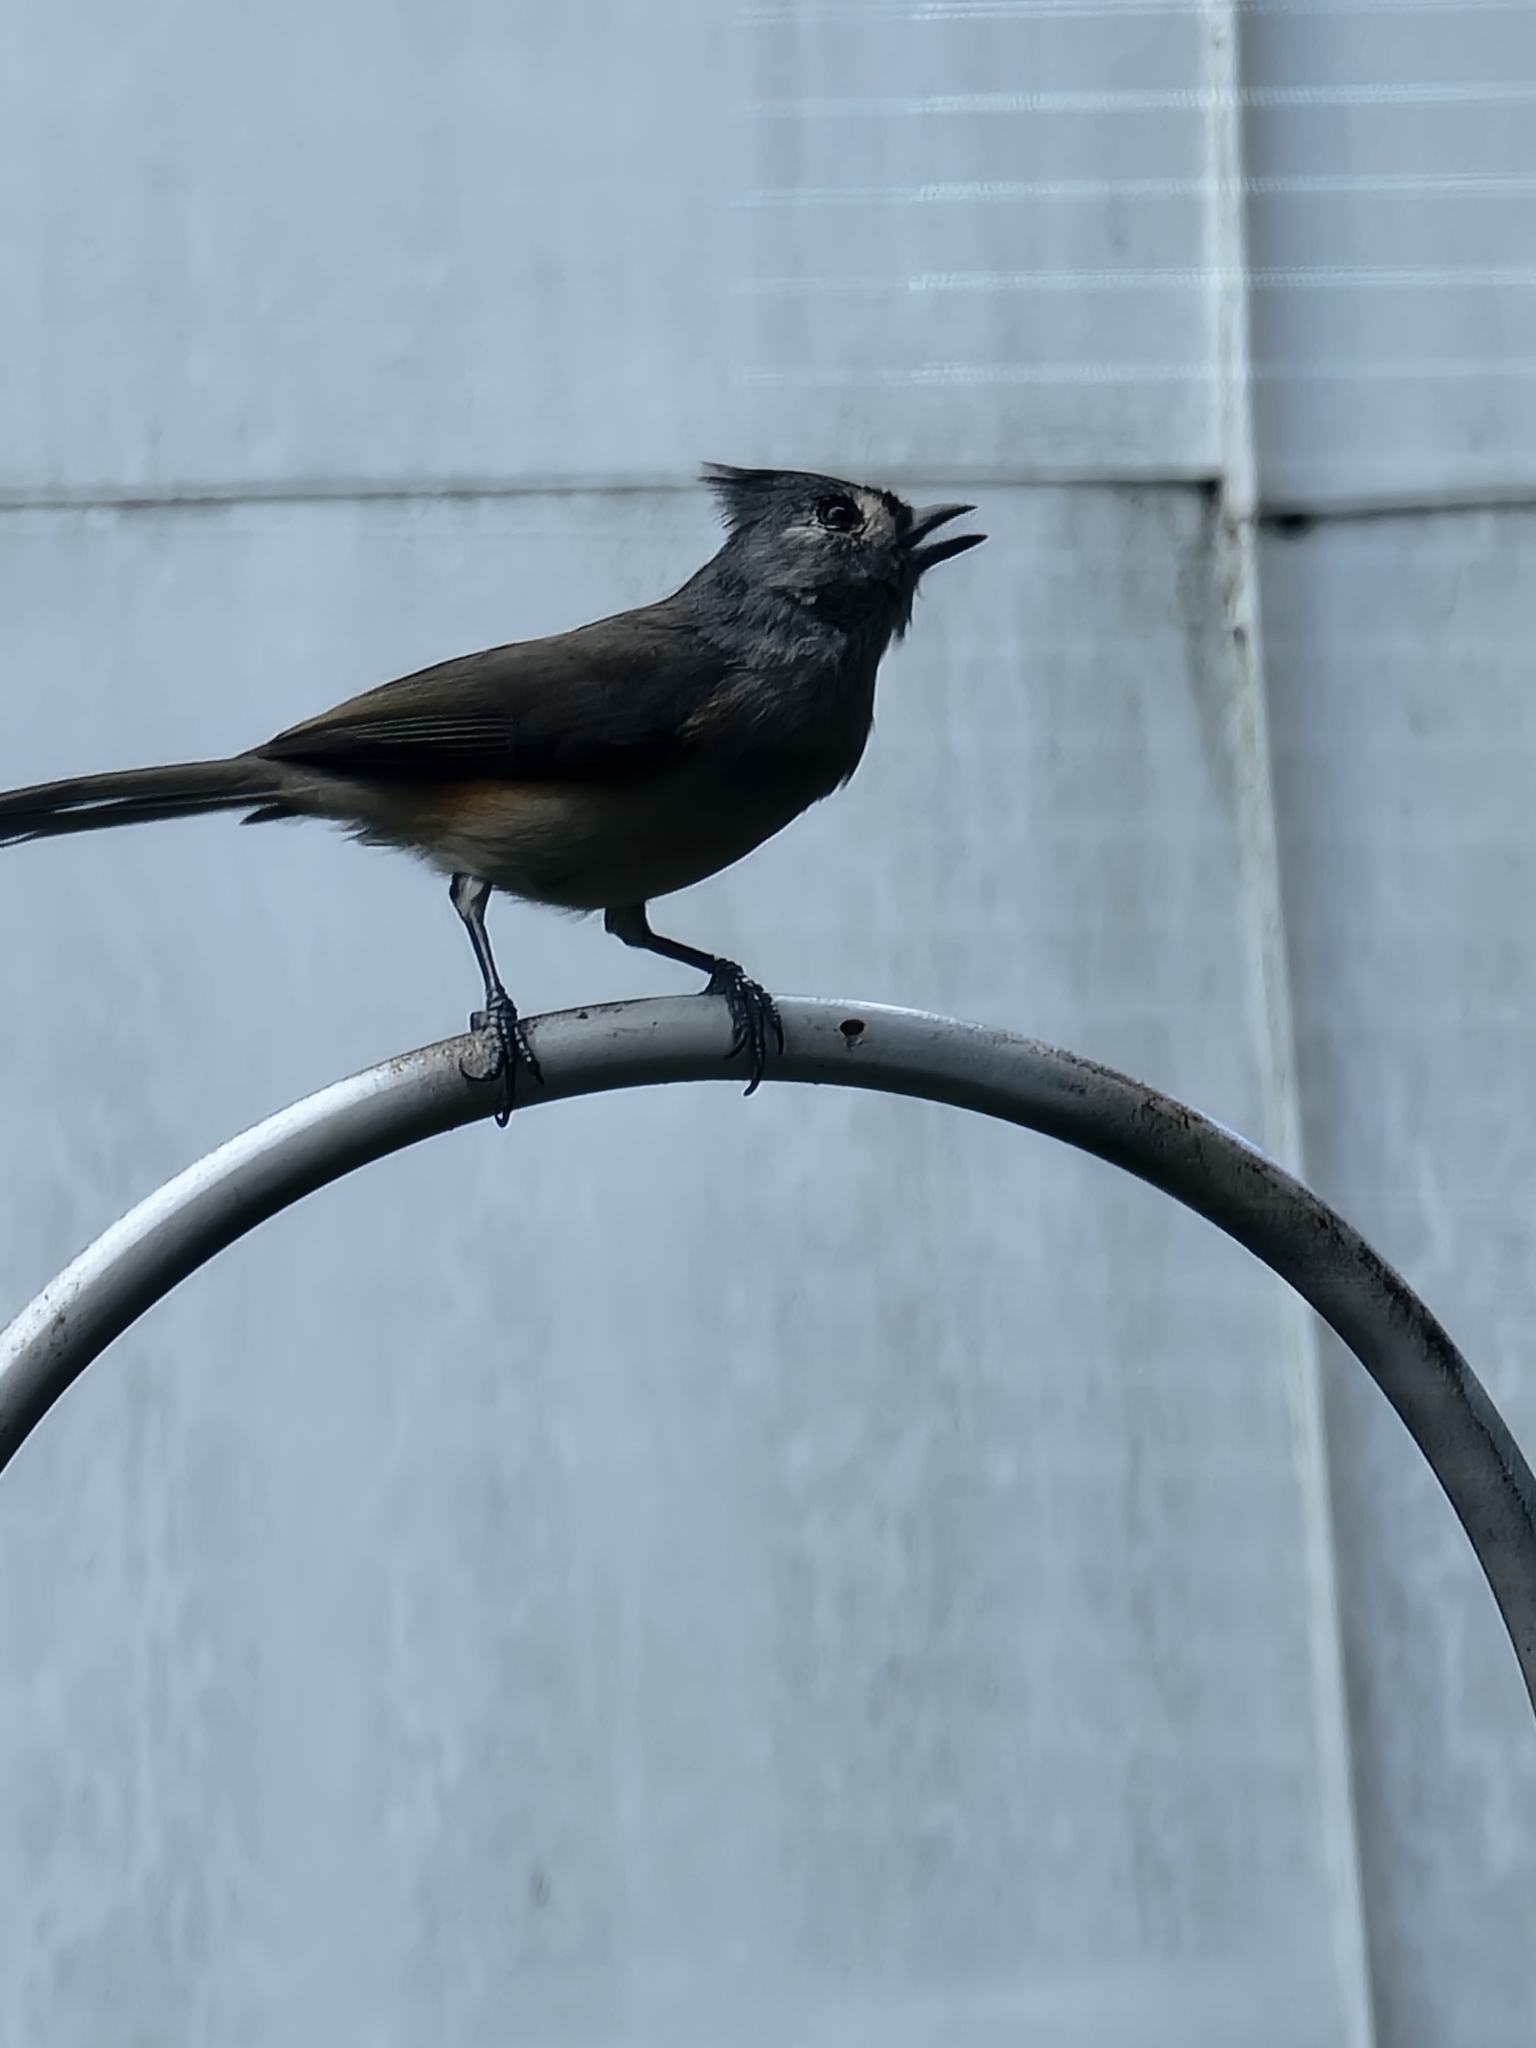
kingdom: Animalia
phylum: Chordata
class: Aves
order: Passeriformes
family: Paridae
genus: Baeolophus
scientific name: Baeolophus bicolor
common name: Tufted titmouse
